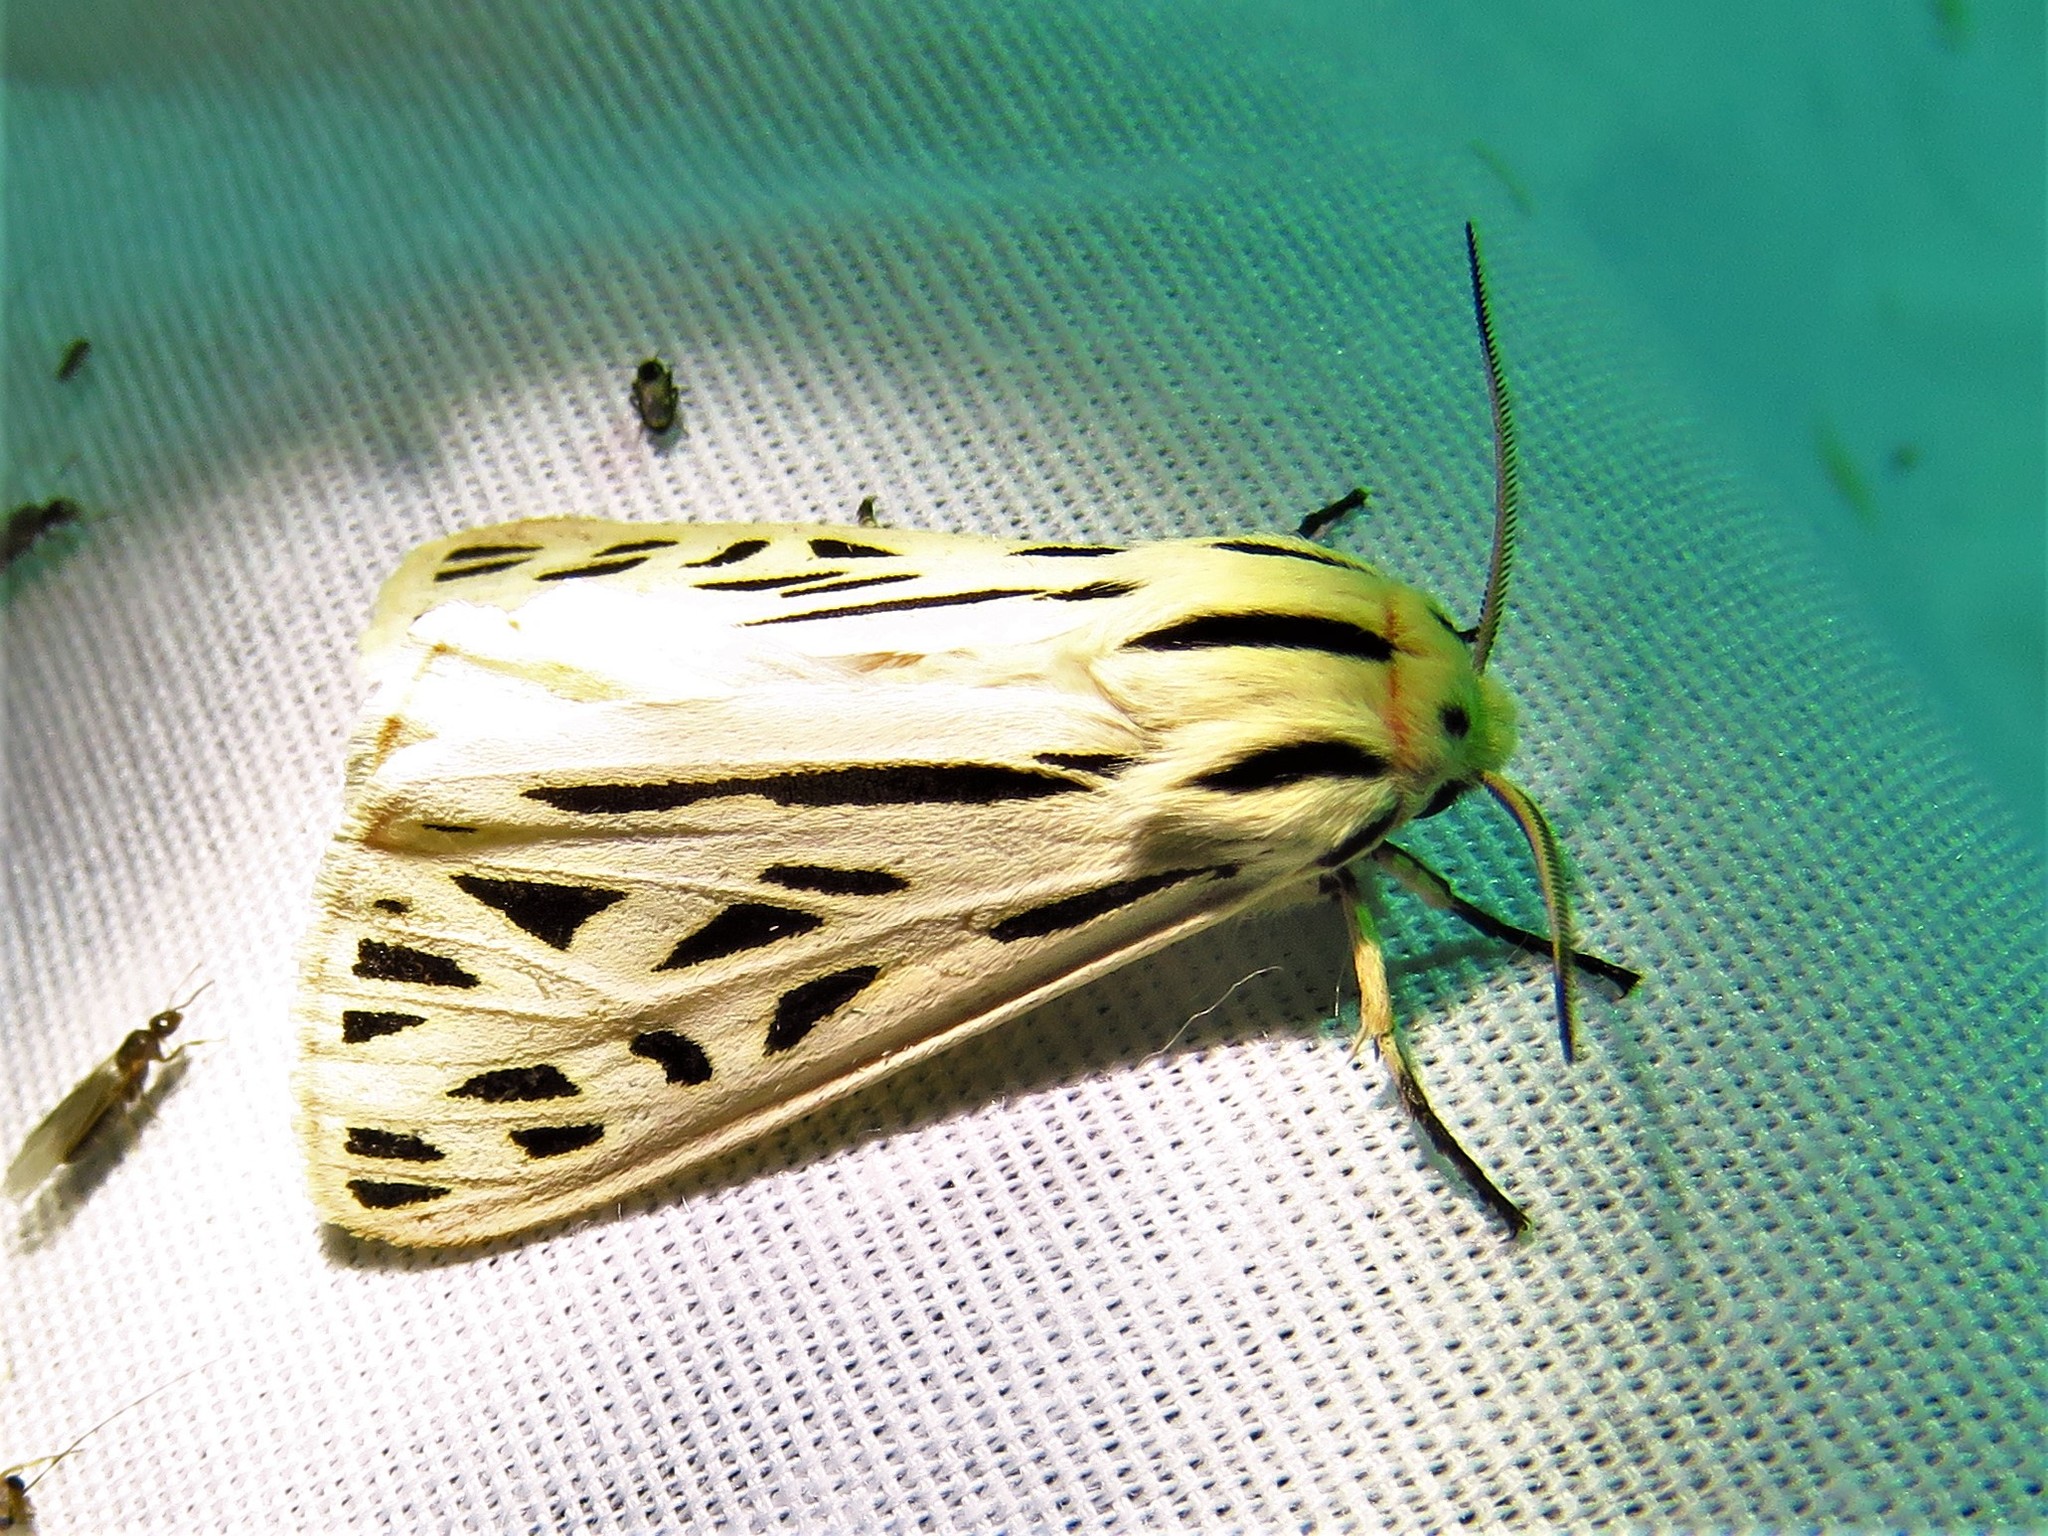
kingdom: Animalia
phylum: Arthropoda
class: Insecta
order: Lepidoptera
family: Erebidae
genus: Apantesis
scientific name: Apantesis arge
